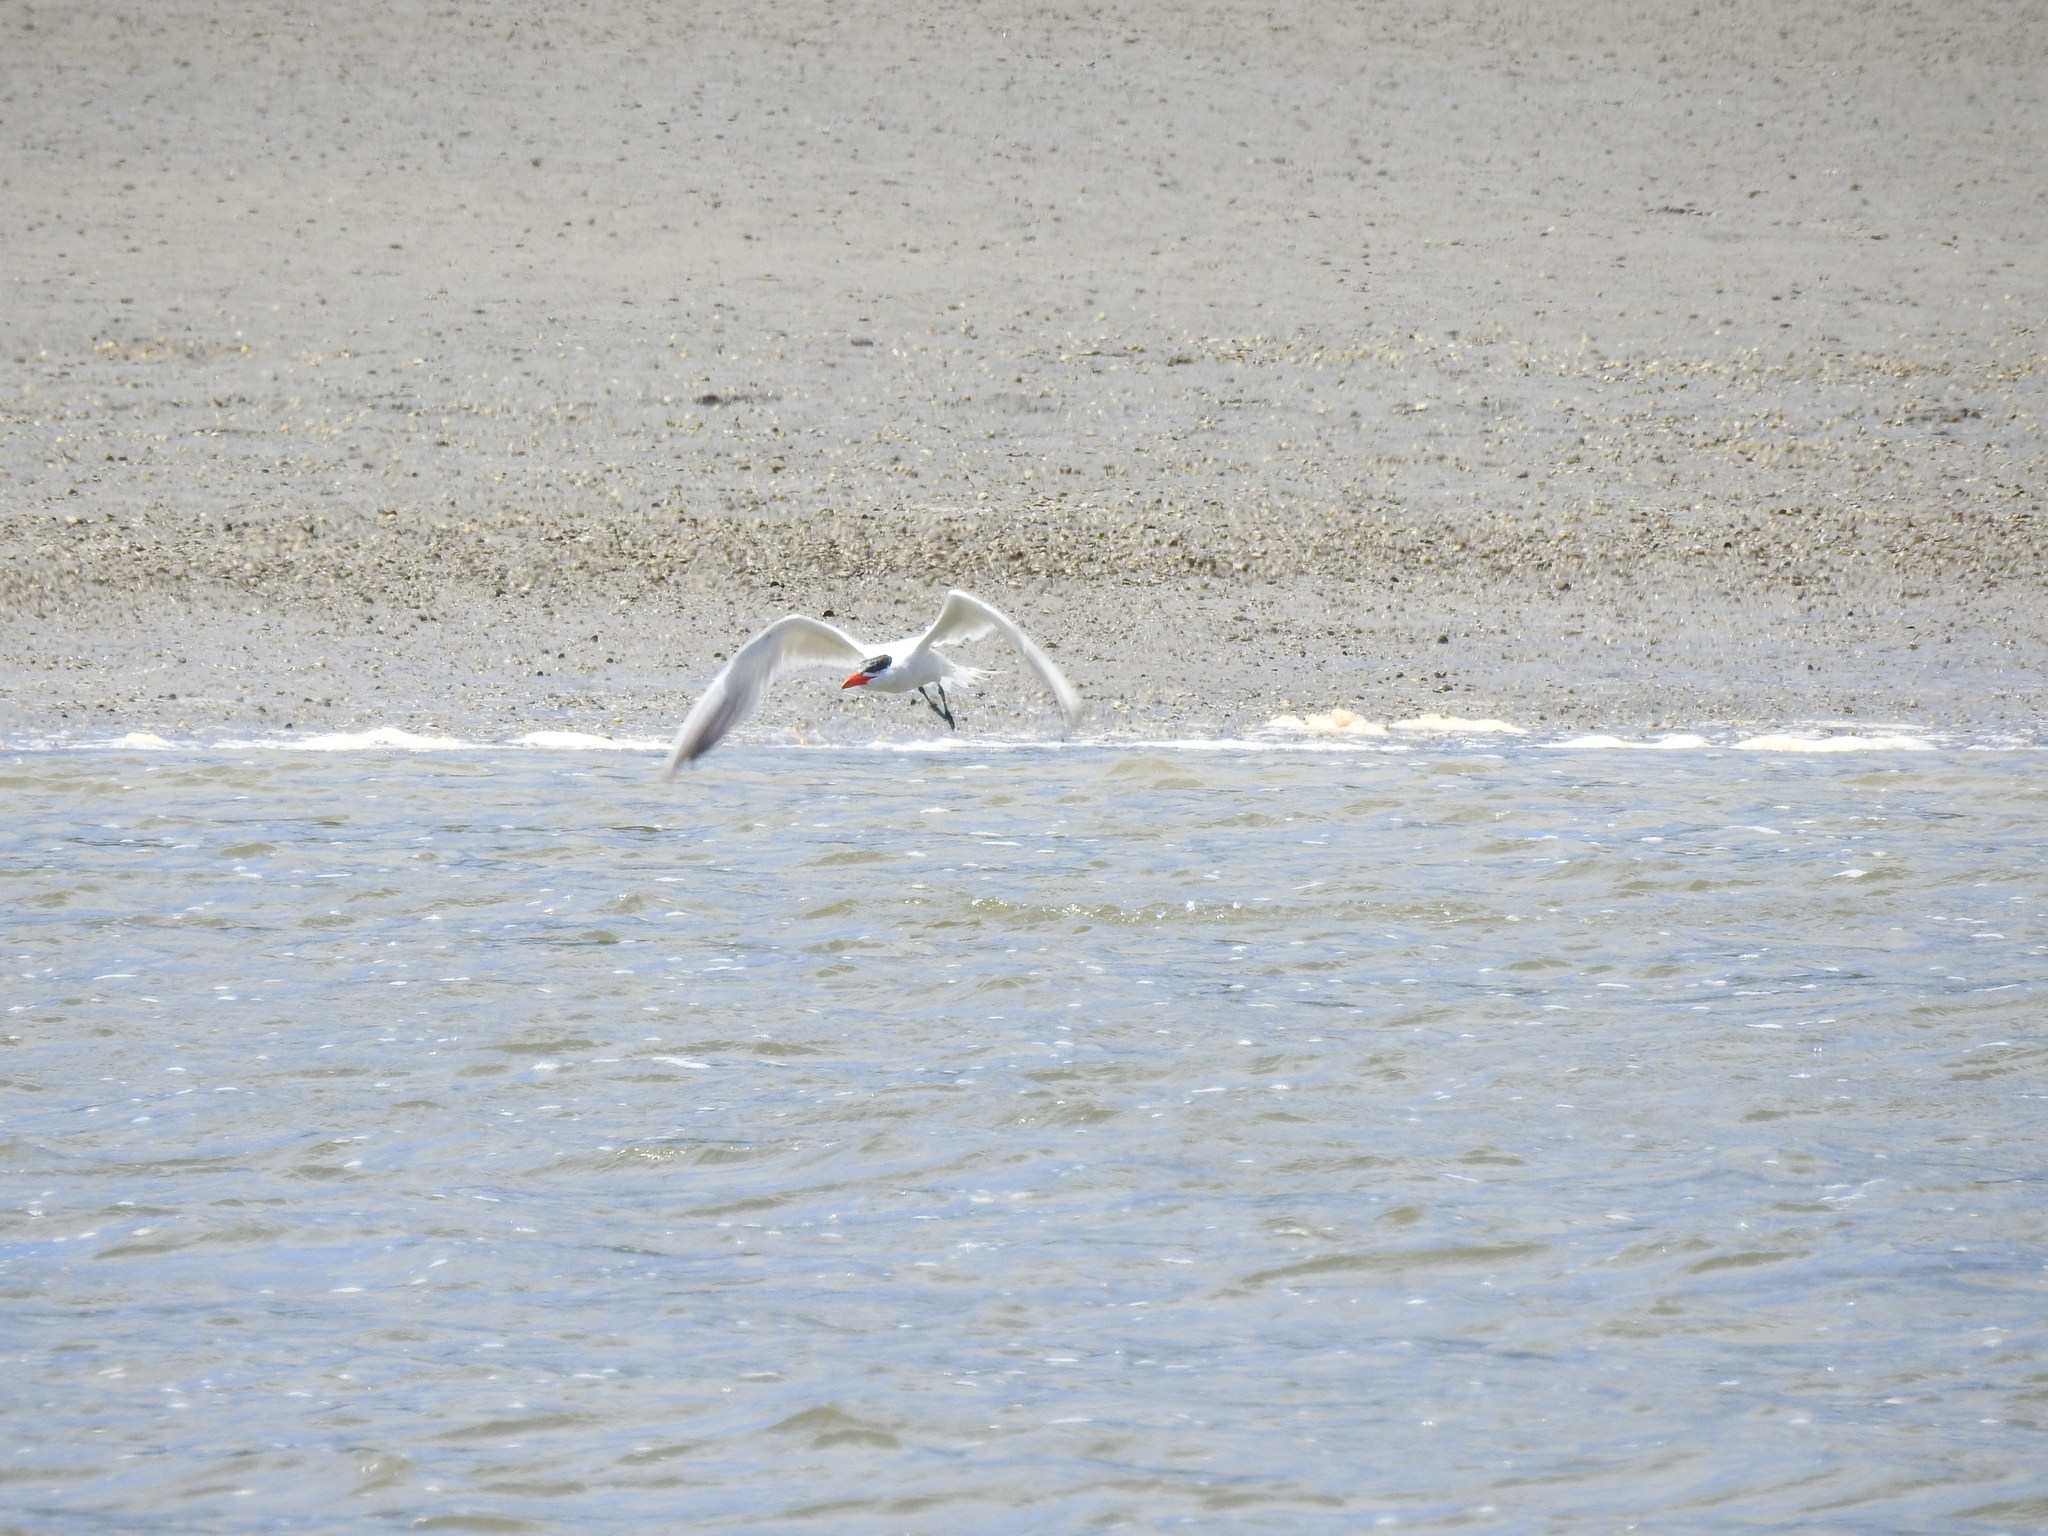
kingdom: Animalia
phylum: Chordata
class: Aves
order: Charadriiformes
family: Laridae
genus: Hydroprogne
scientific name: Hydroprogne caspia
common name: Caspian tern
